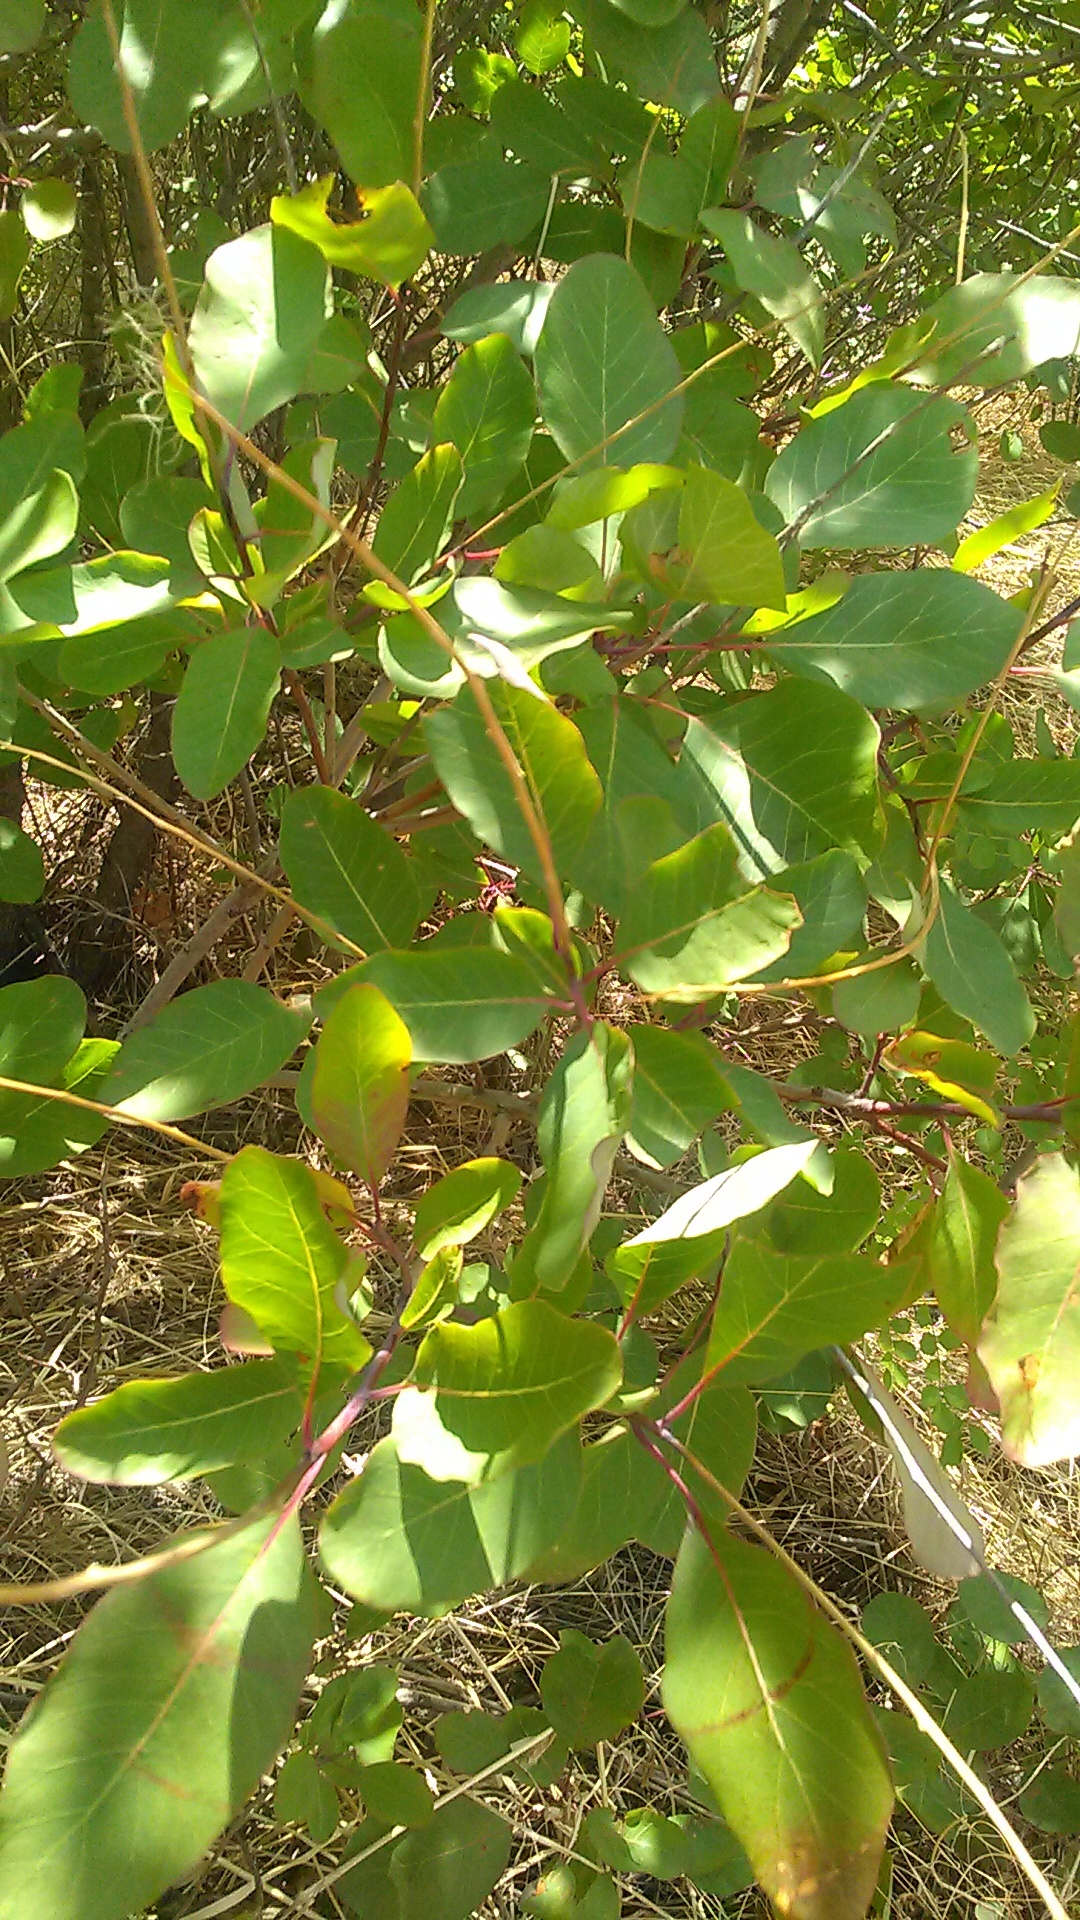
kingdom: Plantae
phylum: Tracheophyta
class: Magnoliopsida
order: Sapindales
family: Anacardiaceae
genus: Cotinus
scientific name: Cotinus coggygria
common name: Smoke-tree
